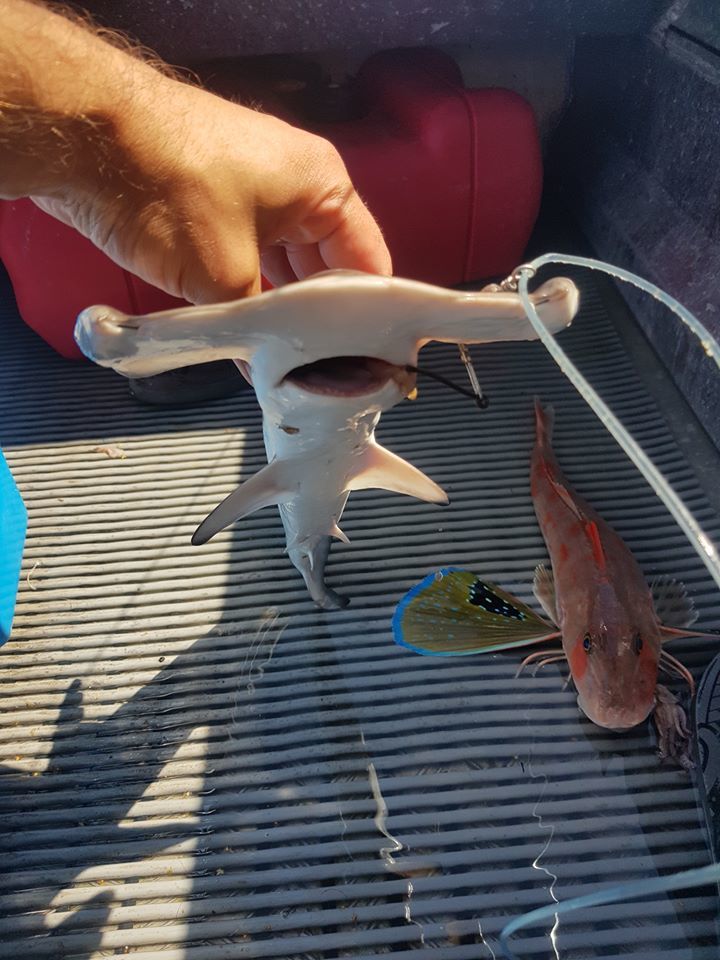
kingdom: Animalia
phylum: Chordata
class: Elasmobranchii
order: Carcharhiniformes
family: Sphyrnidae
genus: Sphyrna
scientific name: Sphyrna zygaena
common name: Smooth hammerhead
